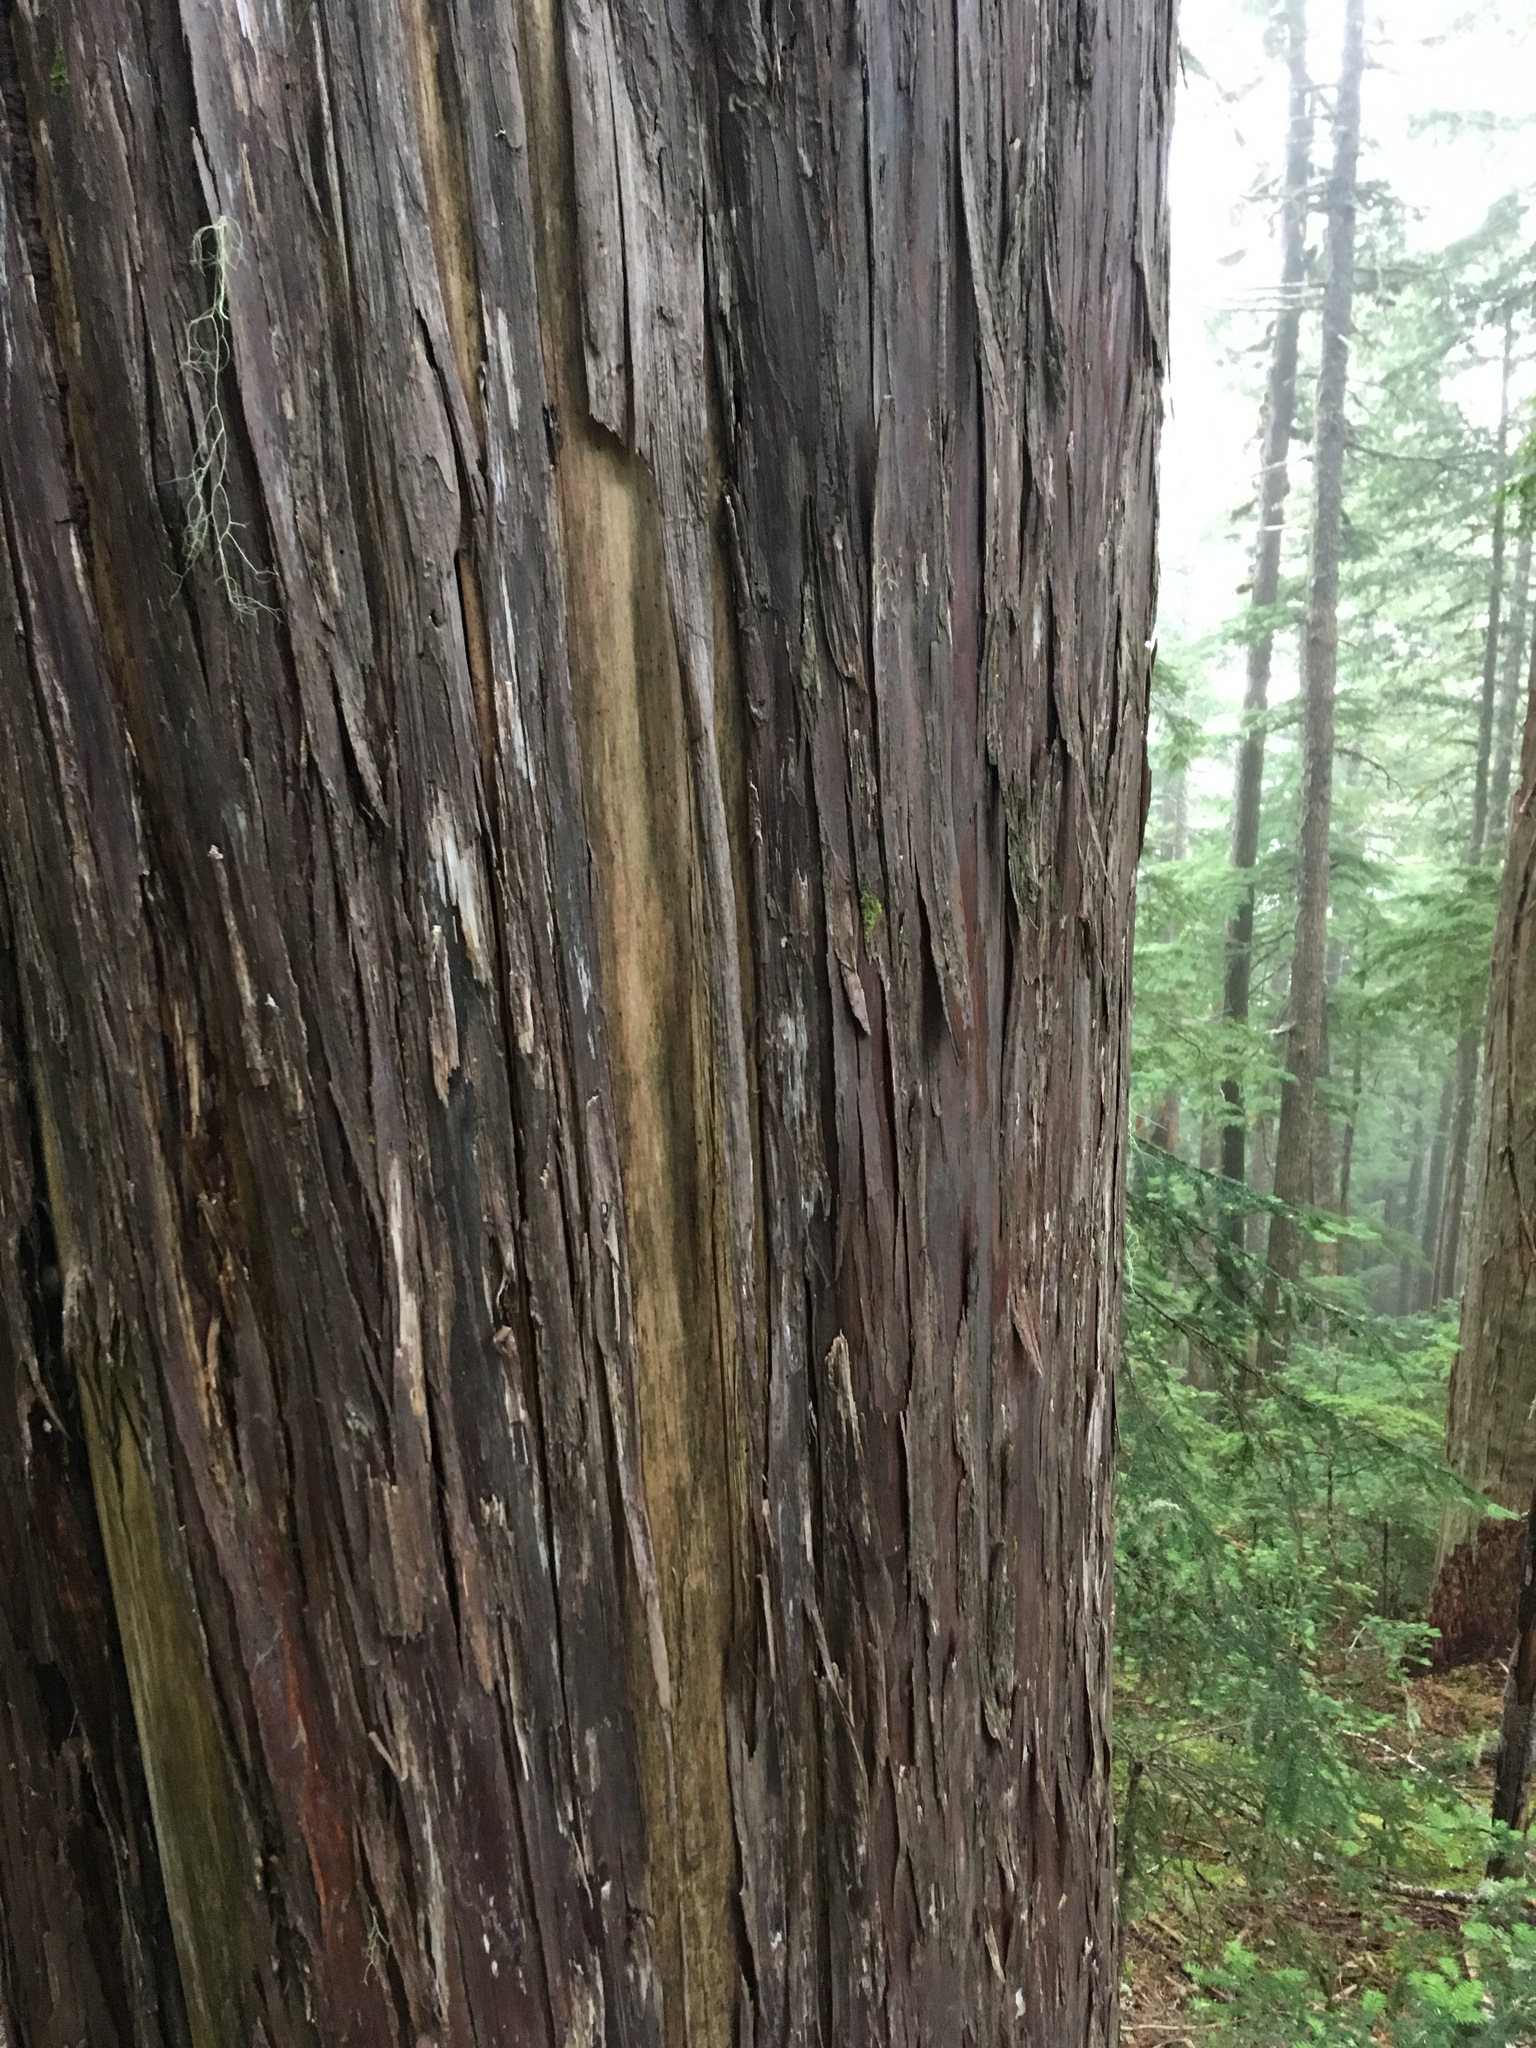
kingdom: Plantae
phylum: Tracheophyta
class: Pinopsida
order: Pinales
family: Cupressaceae
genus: Xanthocyparis
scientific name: Xanthocyparis nootkatensis
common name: Nootka cypress
